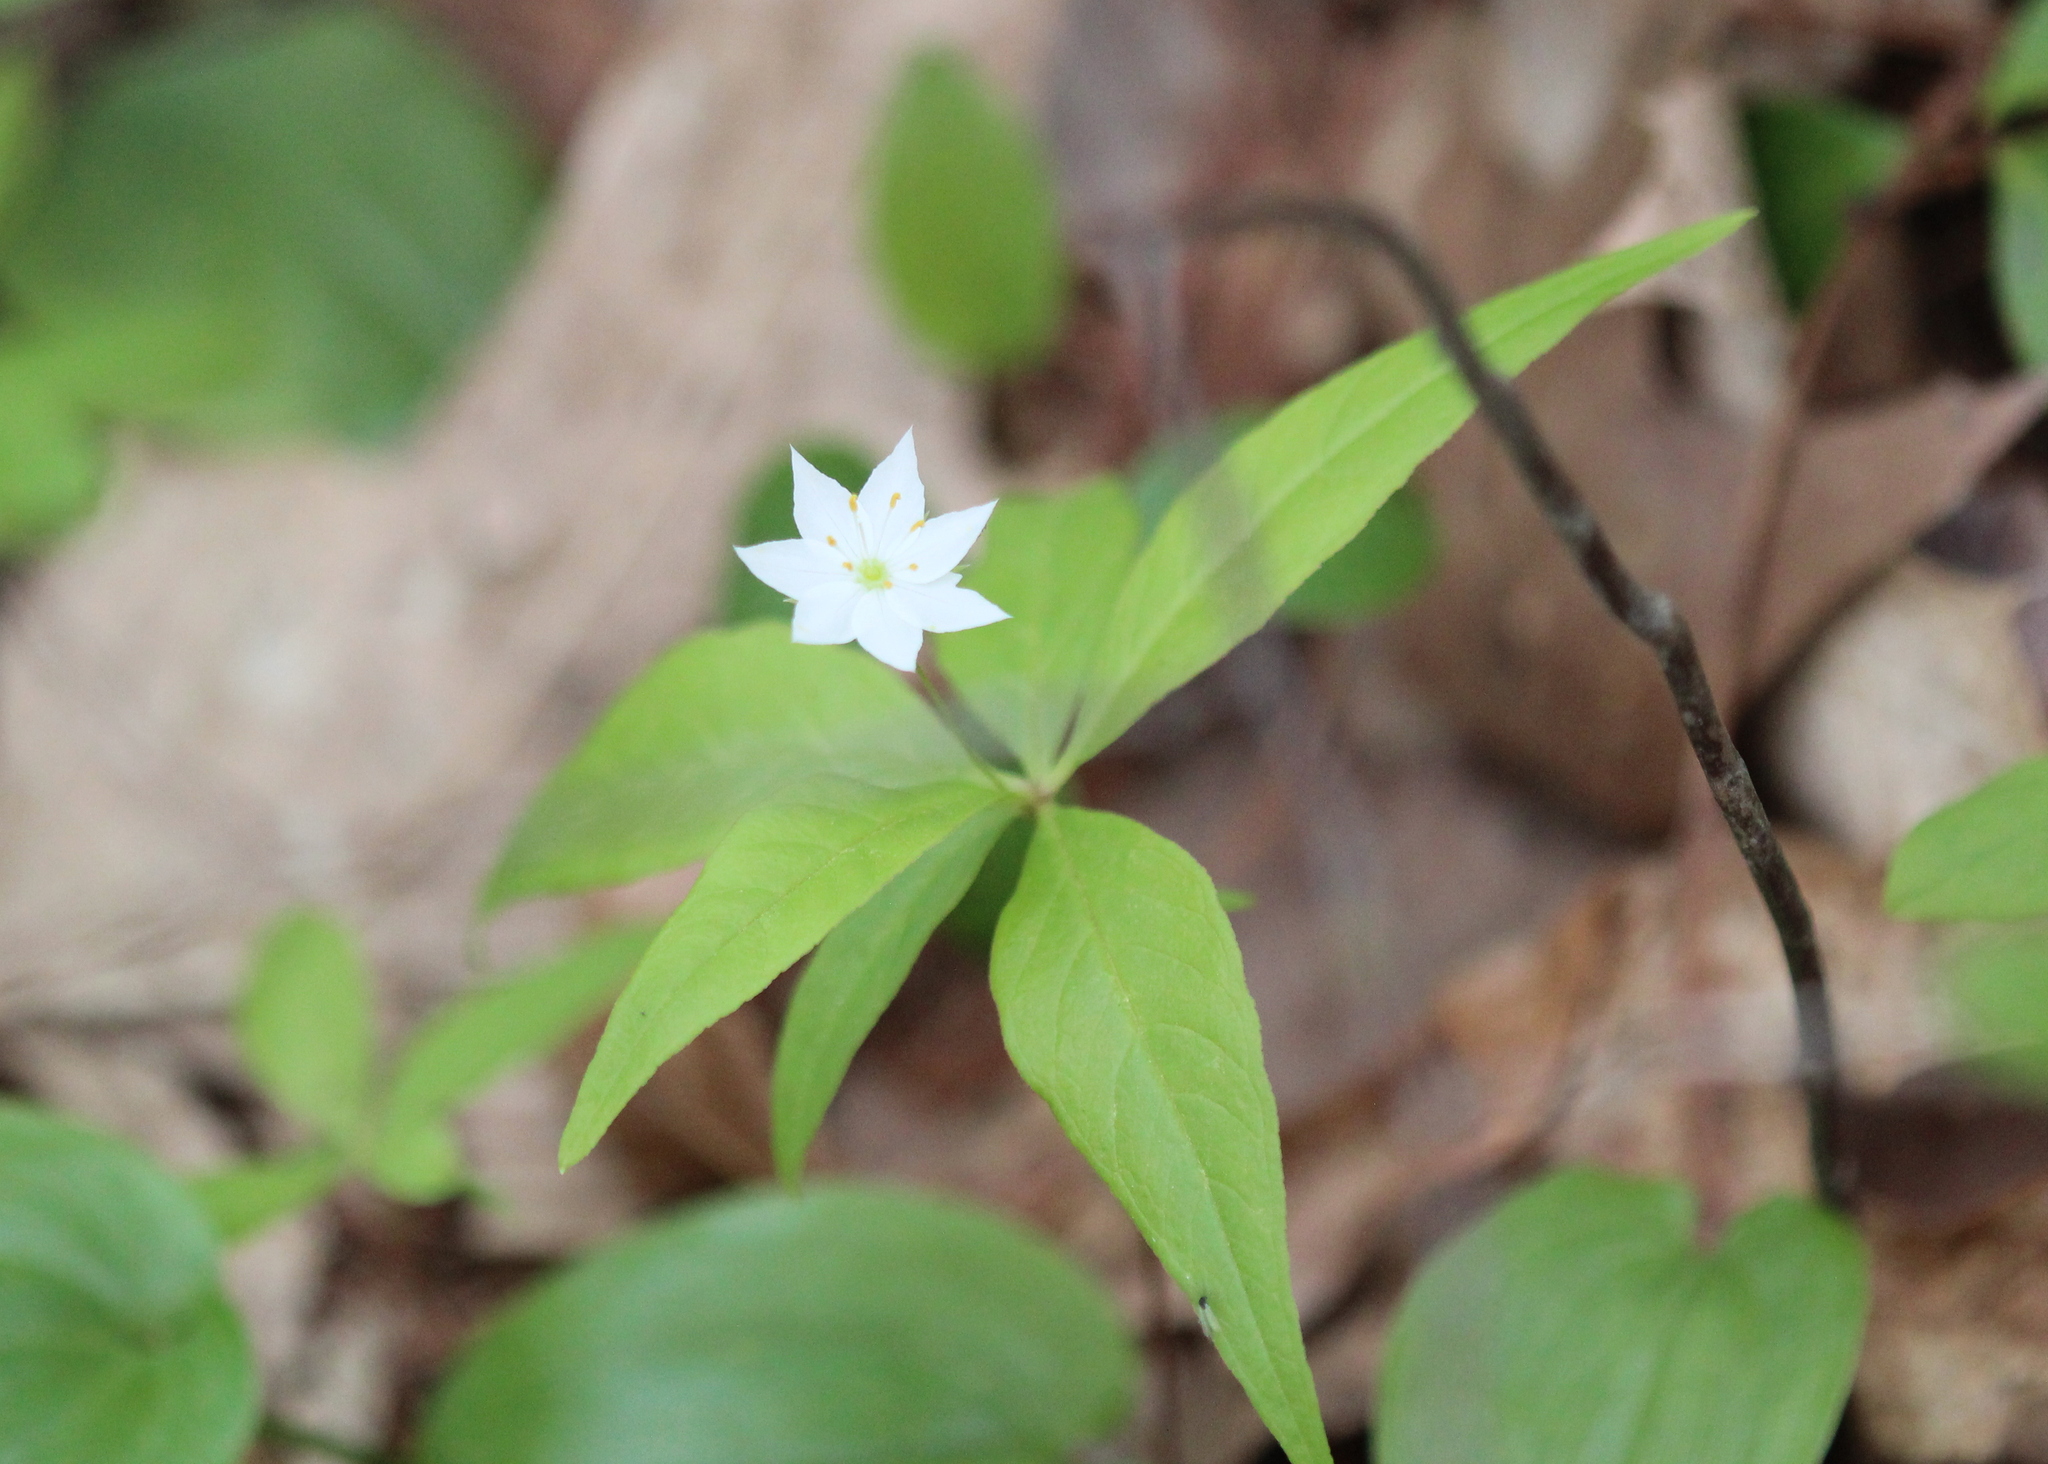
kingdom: Plantae
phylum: Tracheophyta
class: Magnoliopsida
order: Ericales
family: Primulaceae
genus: Lysimachia
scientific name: Lysimachia borealis
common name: American starflower
